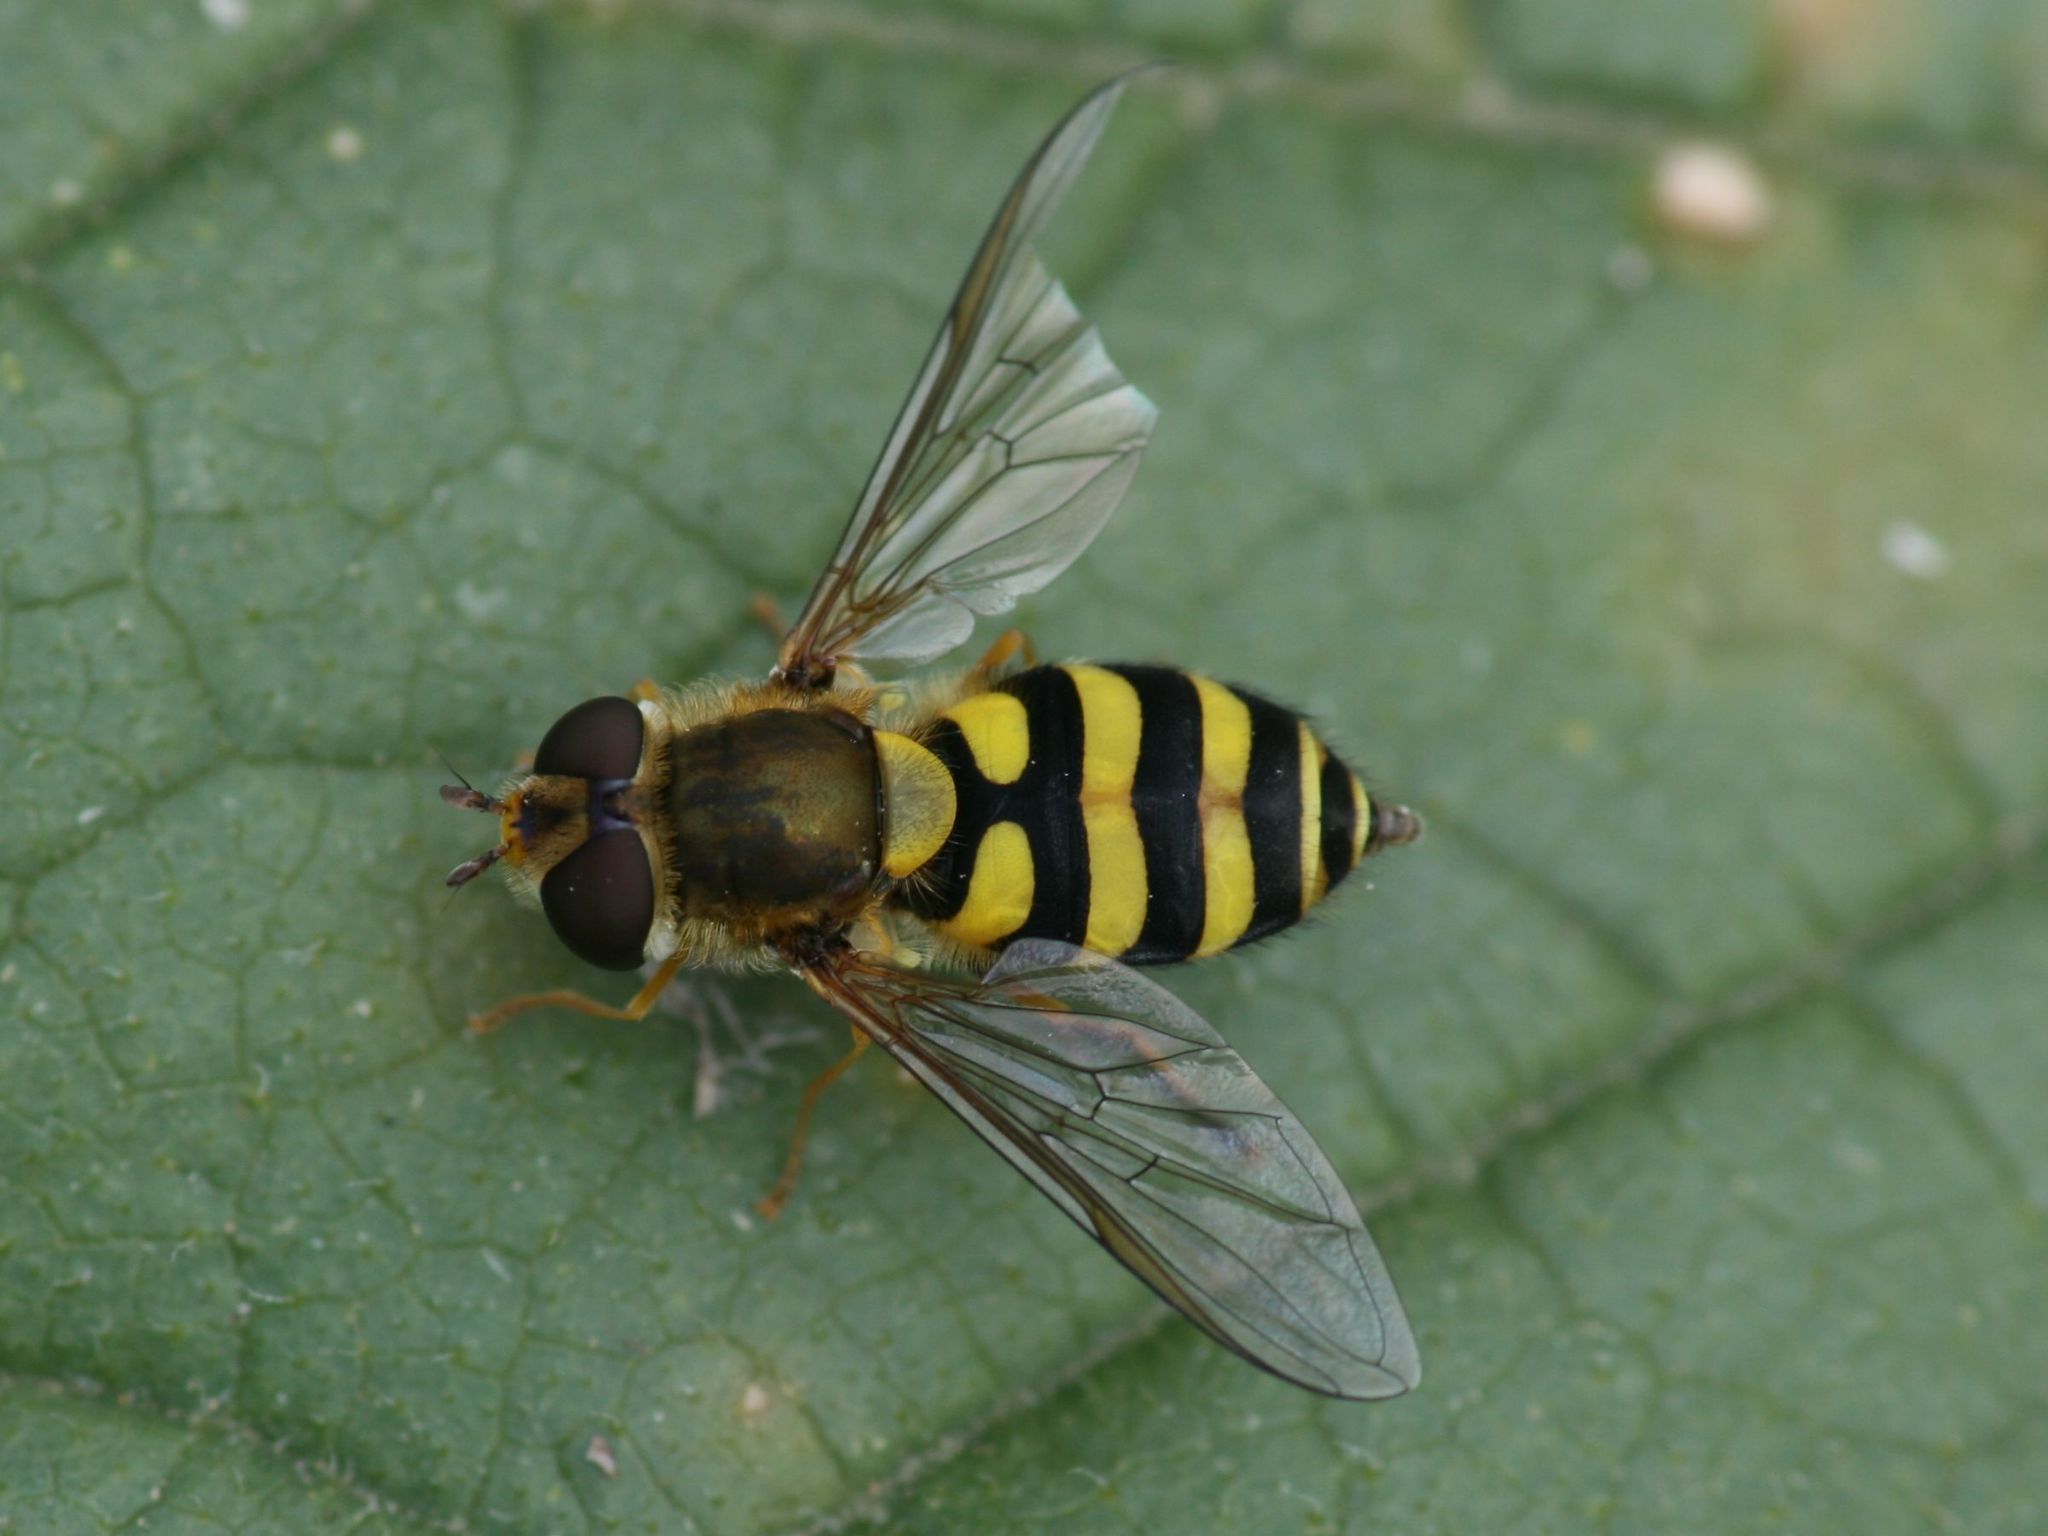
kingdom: Animalia
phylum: Arthropoda
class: Insecta
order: Diptera
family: Syrphidae
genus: Syrphus
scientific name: Syrphus
